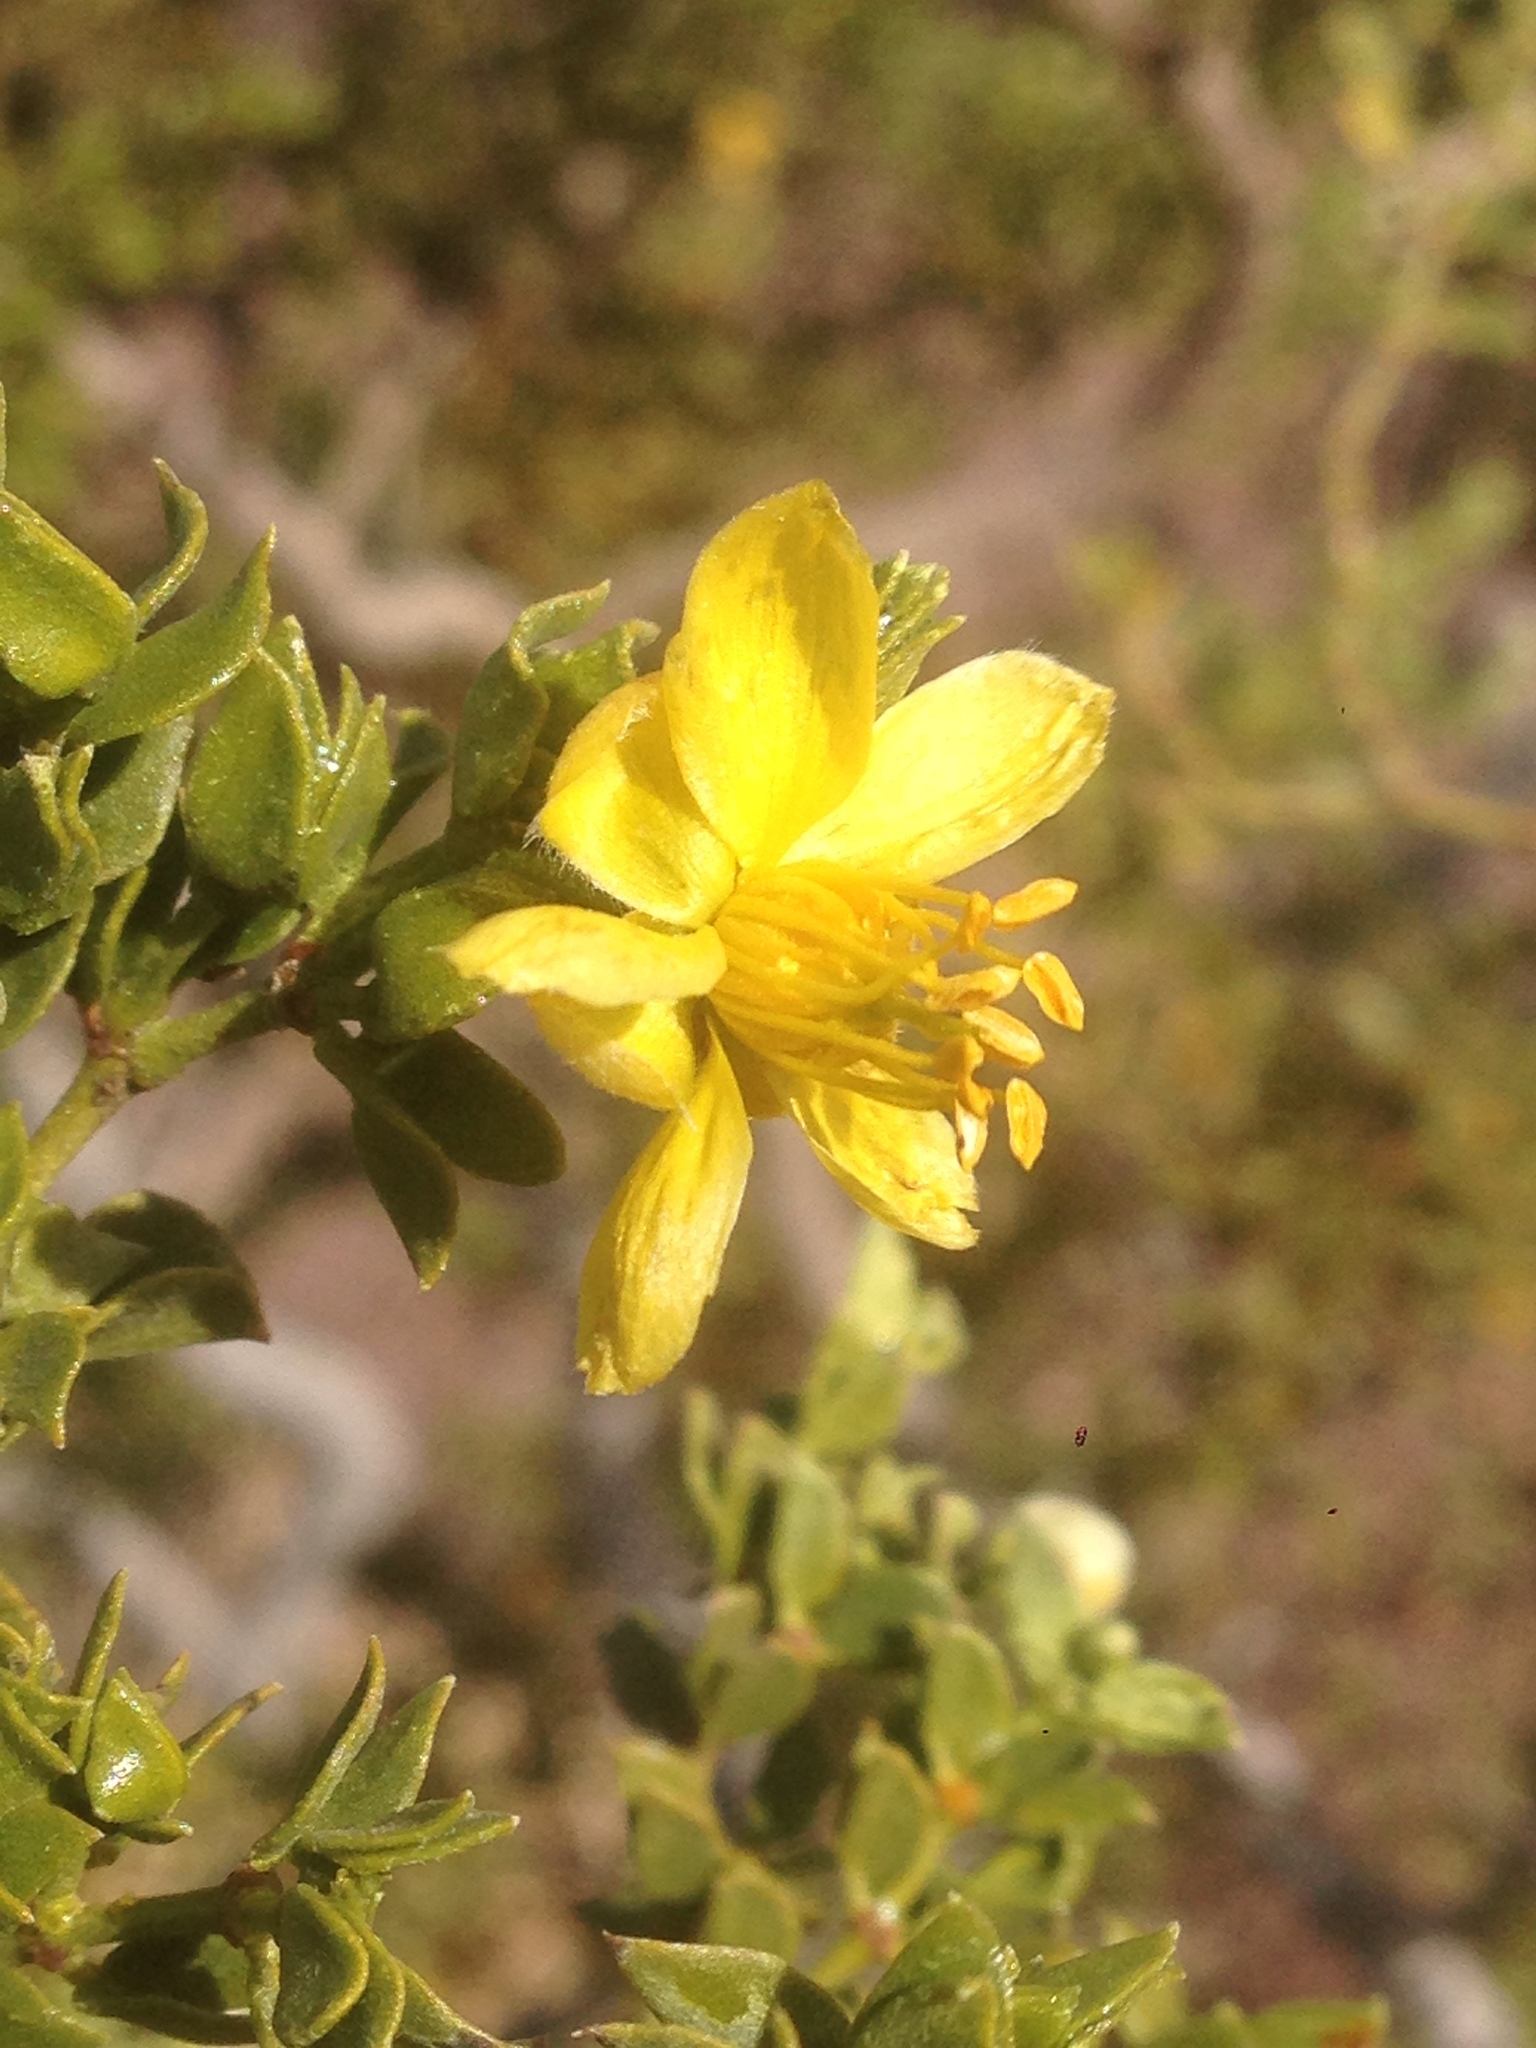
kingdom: Plantae
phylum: Tracheophyta
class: Magnoliopsida
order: Zygophyllales
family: Zygophyllaceae
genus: Larrea
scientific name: Larrea tridentata
